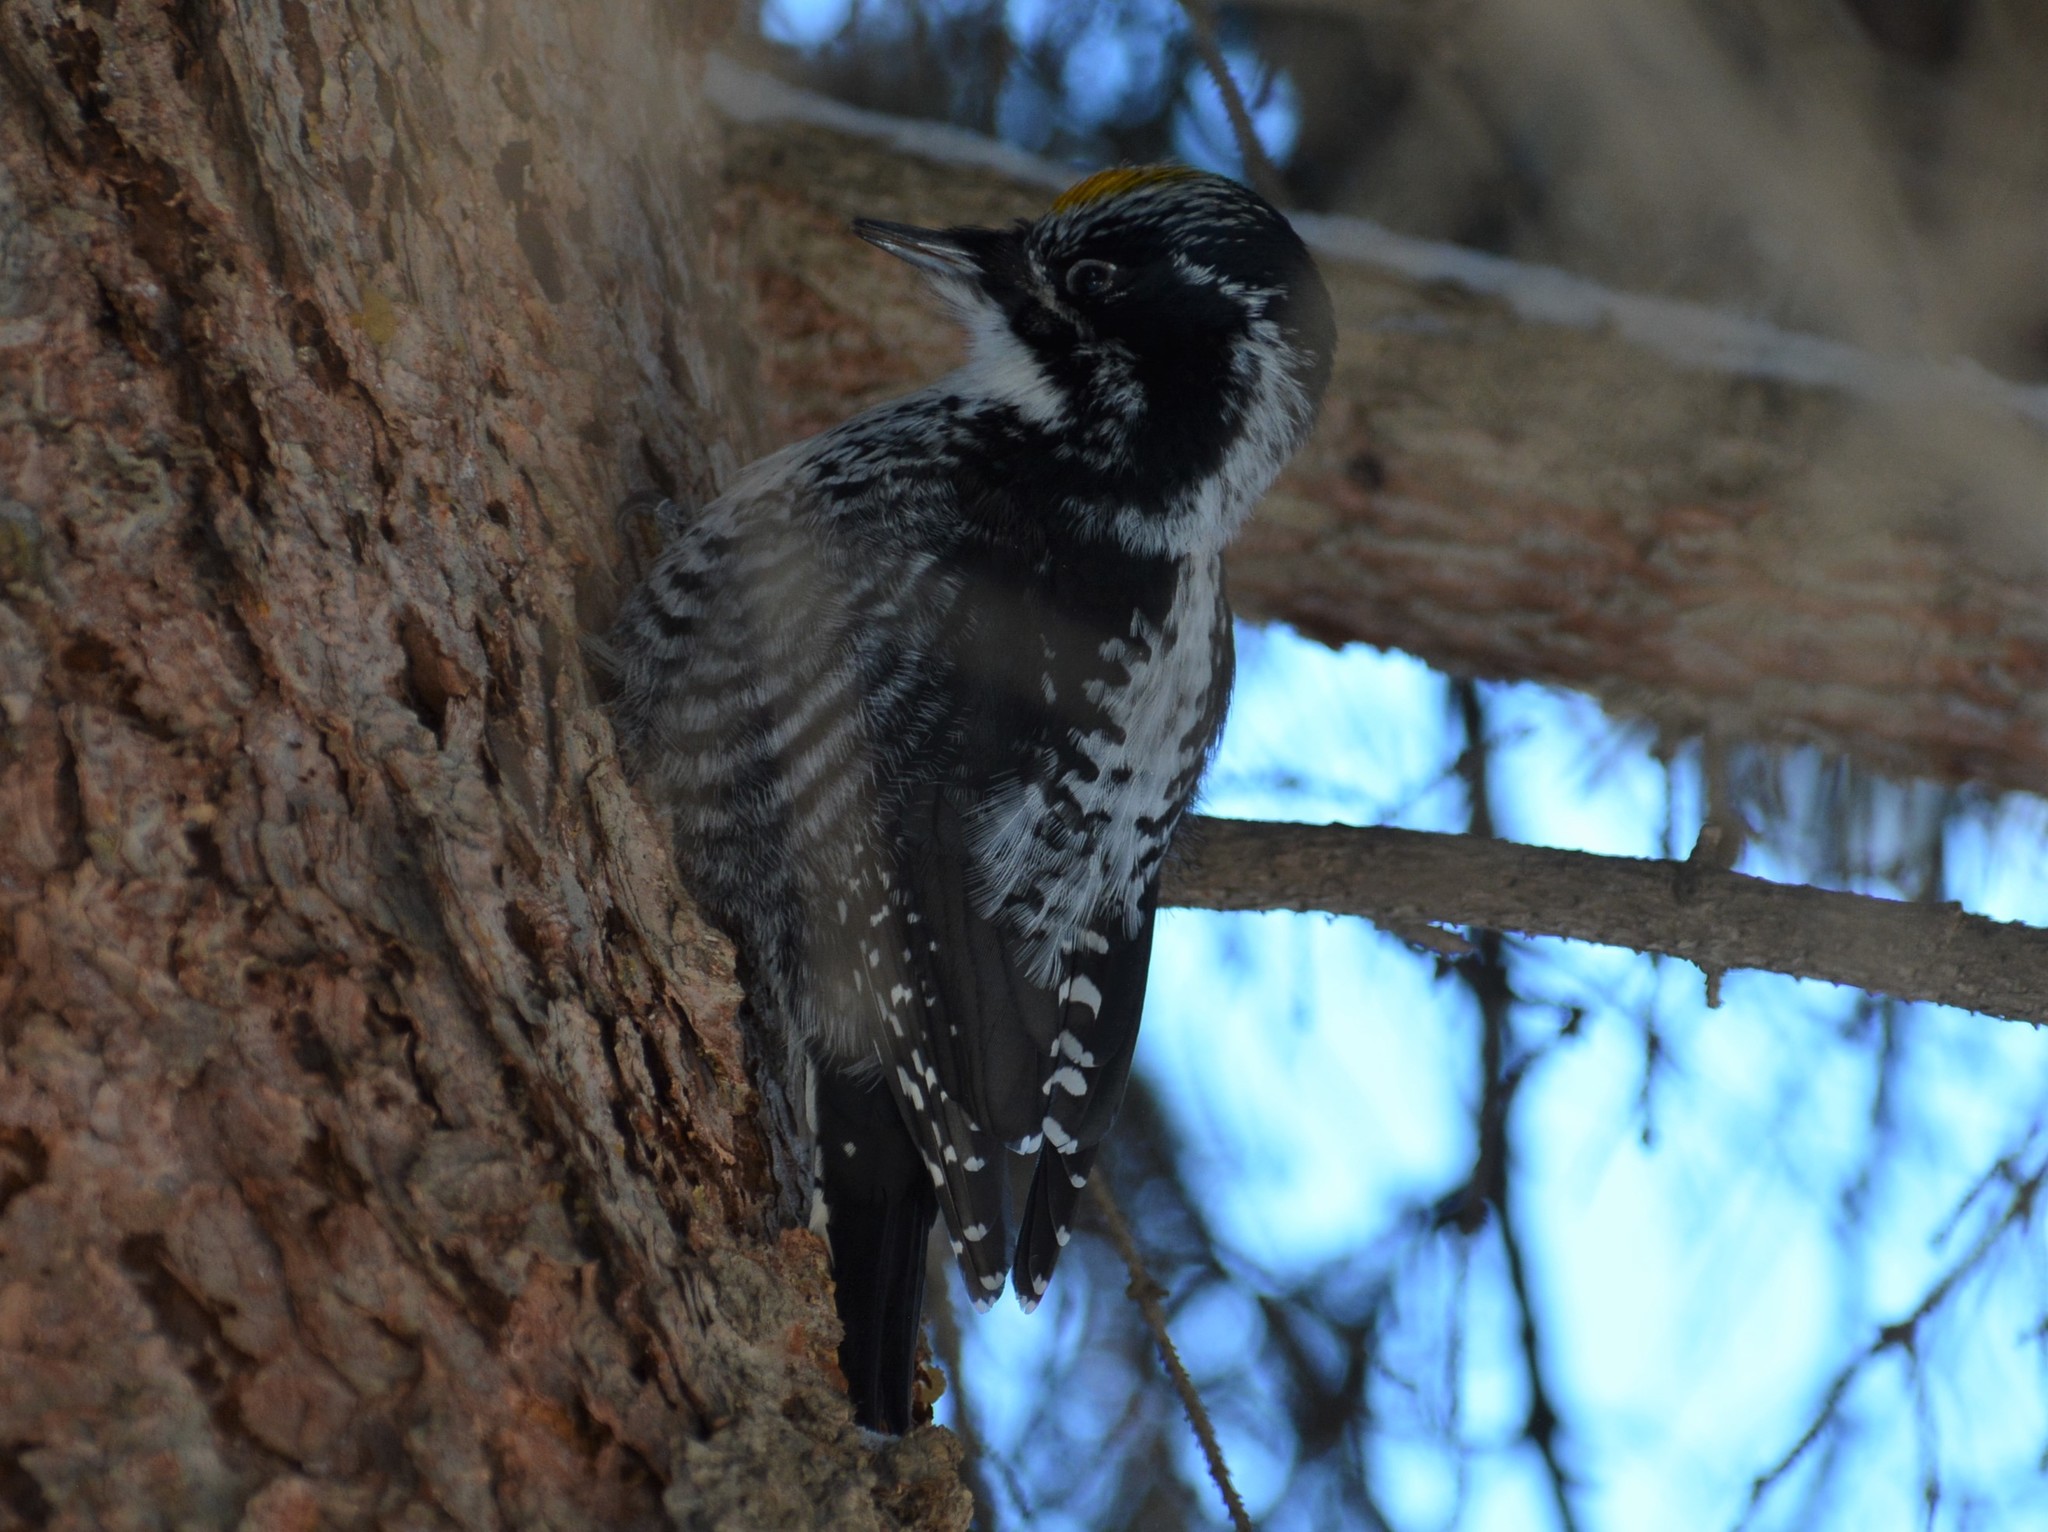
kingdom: Animalia
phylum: Chordata
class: Aves
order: Piciformes
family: Picidae
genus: Picoides
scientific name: Picoides dorsalis
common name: American three-toed woodpecker
